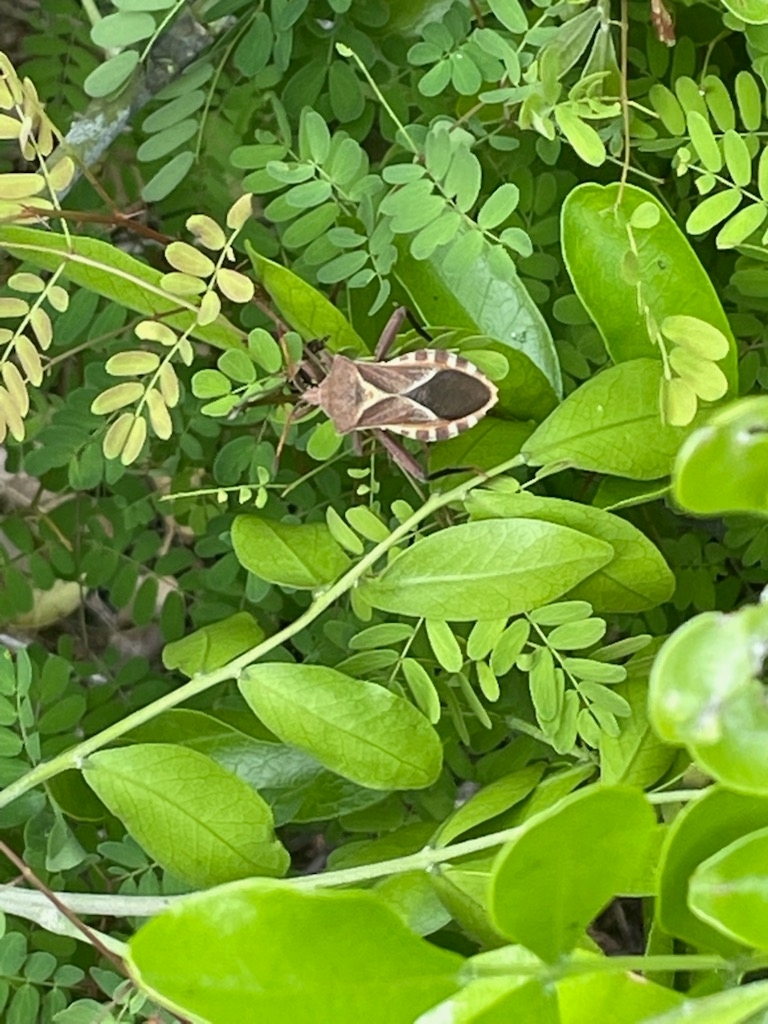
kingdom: Animalia
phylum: Arthropoda
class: Insecta
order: Hemiptera
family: Coreidae
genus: Mozena
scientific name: Mozena buenoi
